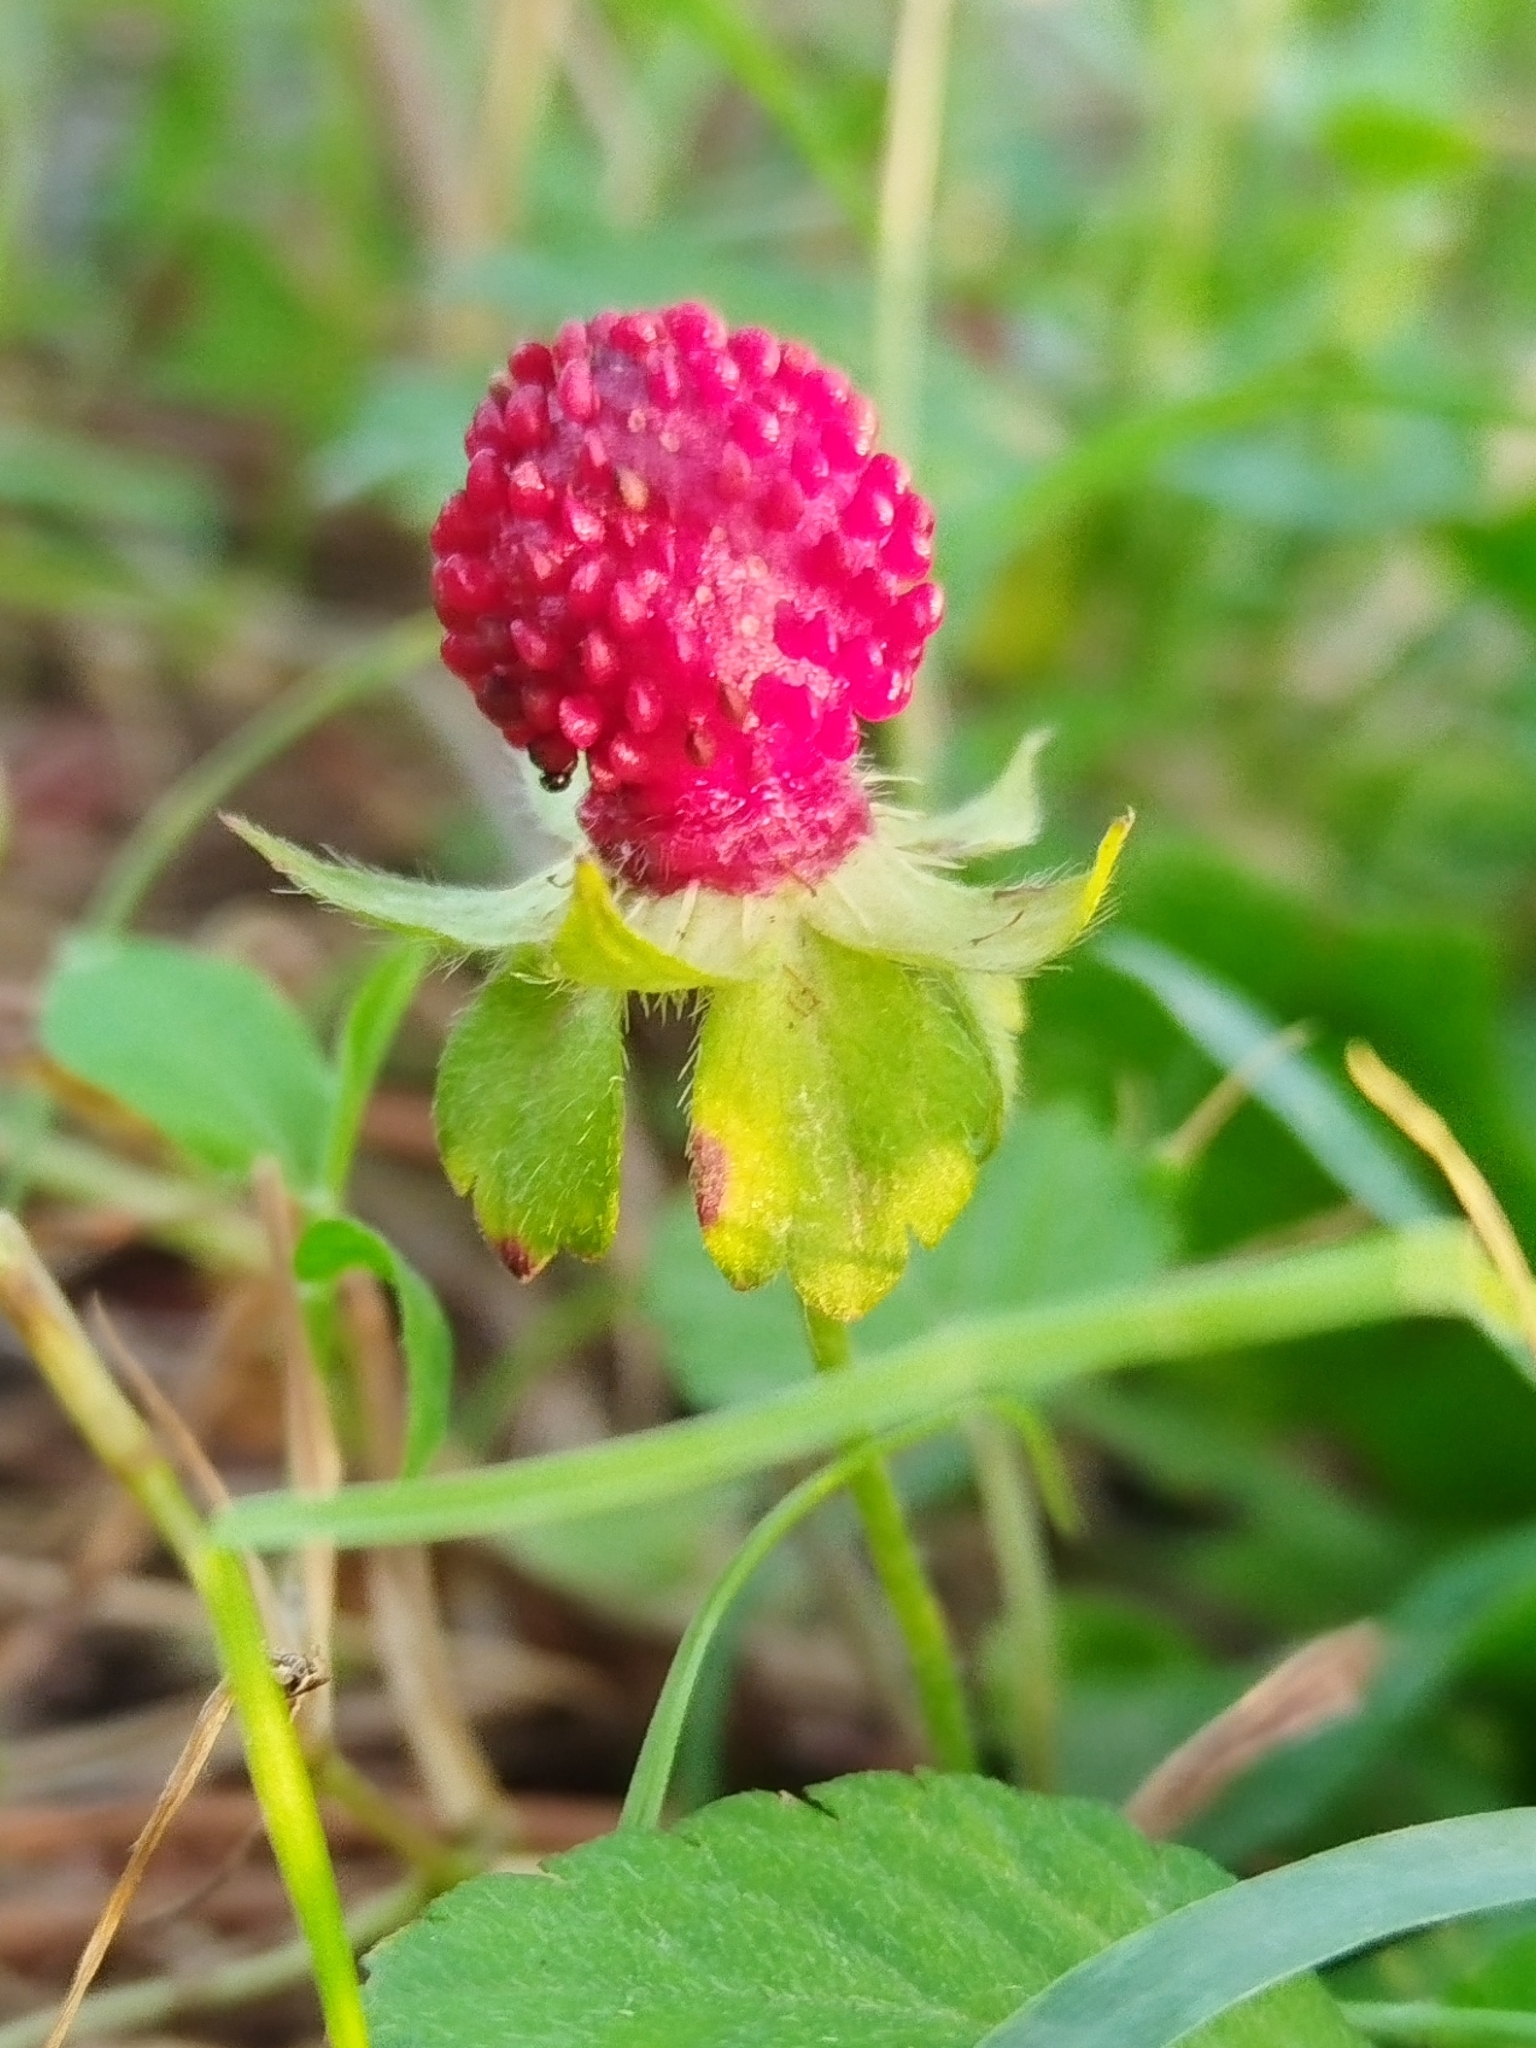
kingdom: Plantae
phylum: Tracheophyta
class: Magnoliopsida
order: Rosales
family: Rosaceae
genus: Potentilla
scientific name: Potentilla indica
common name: Yellow-flowered strawberry
